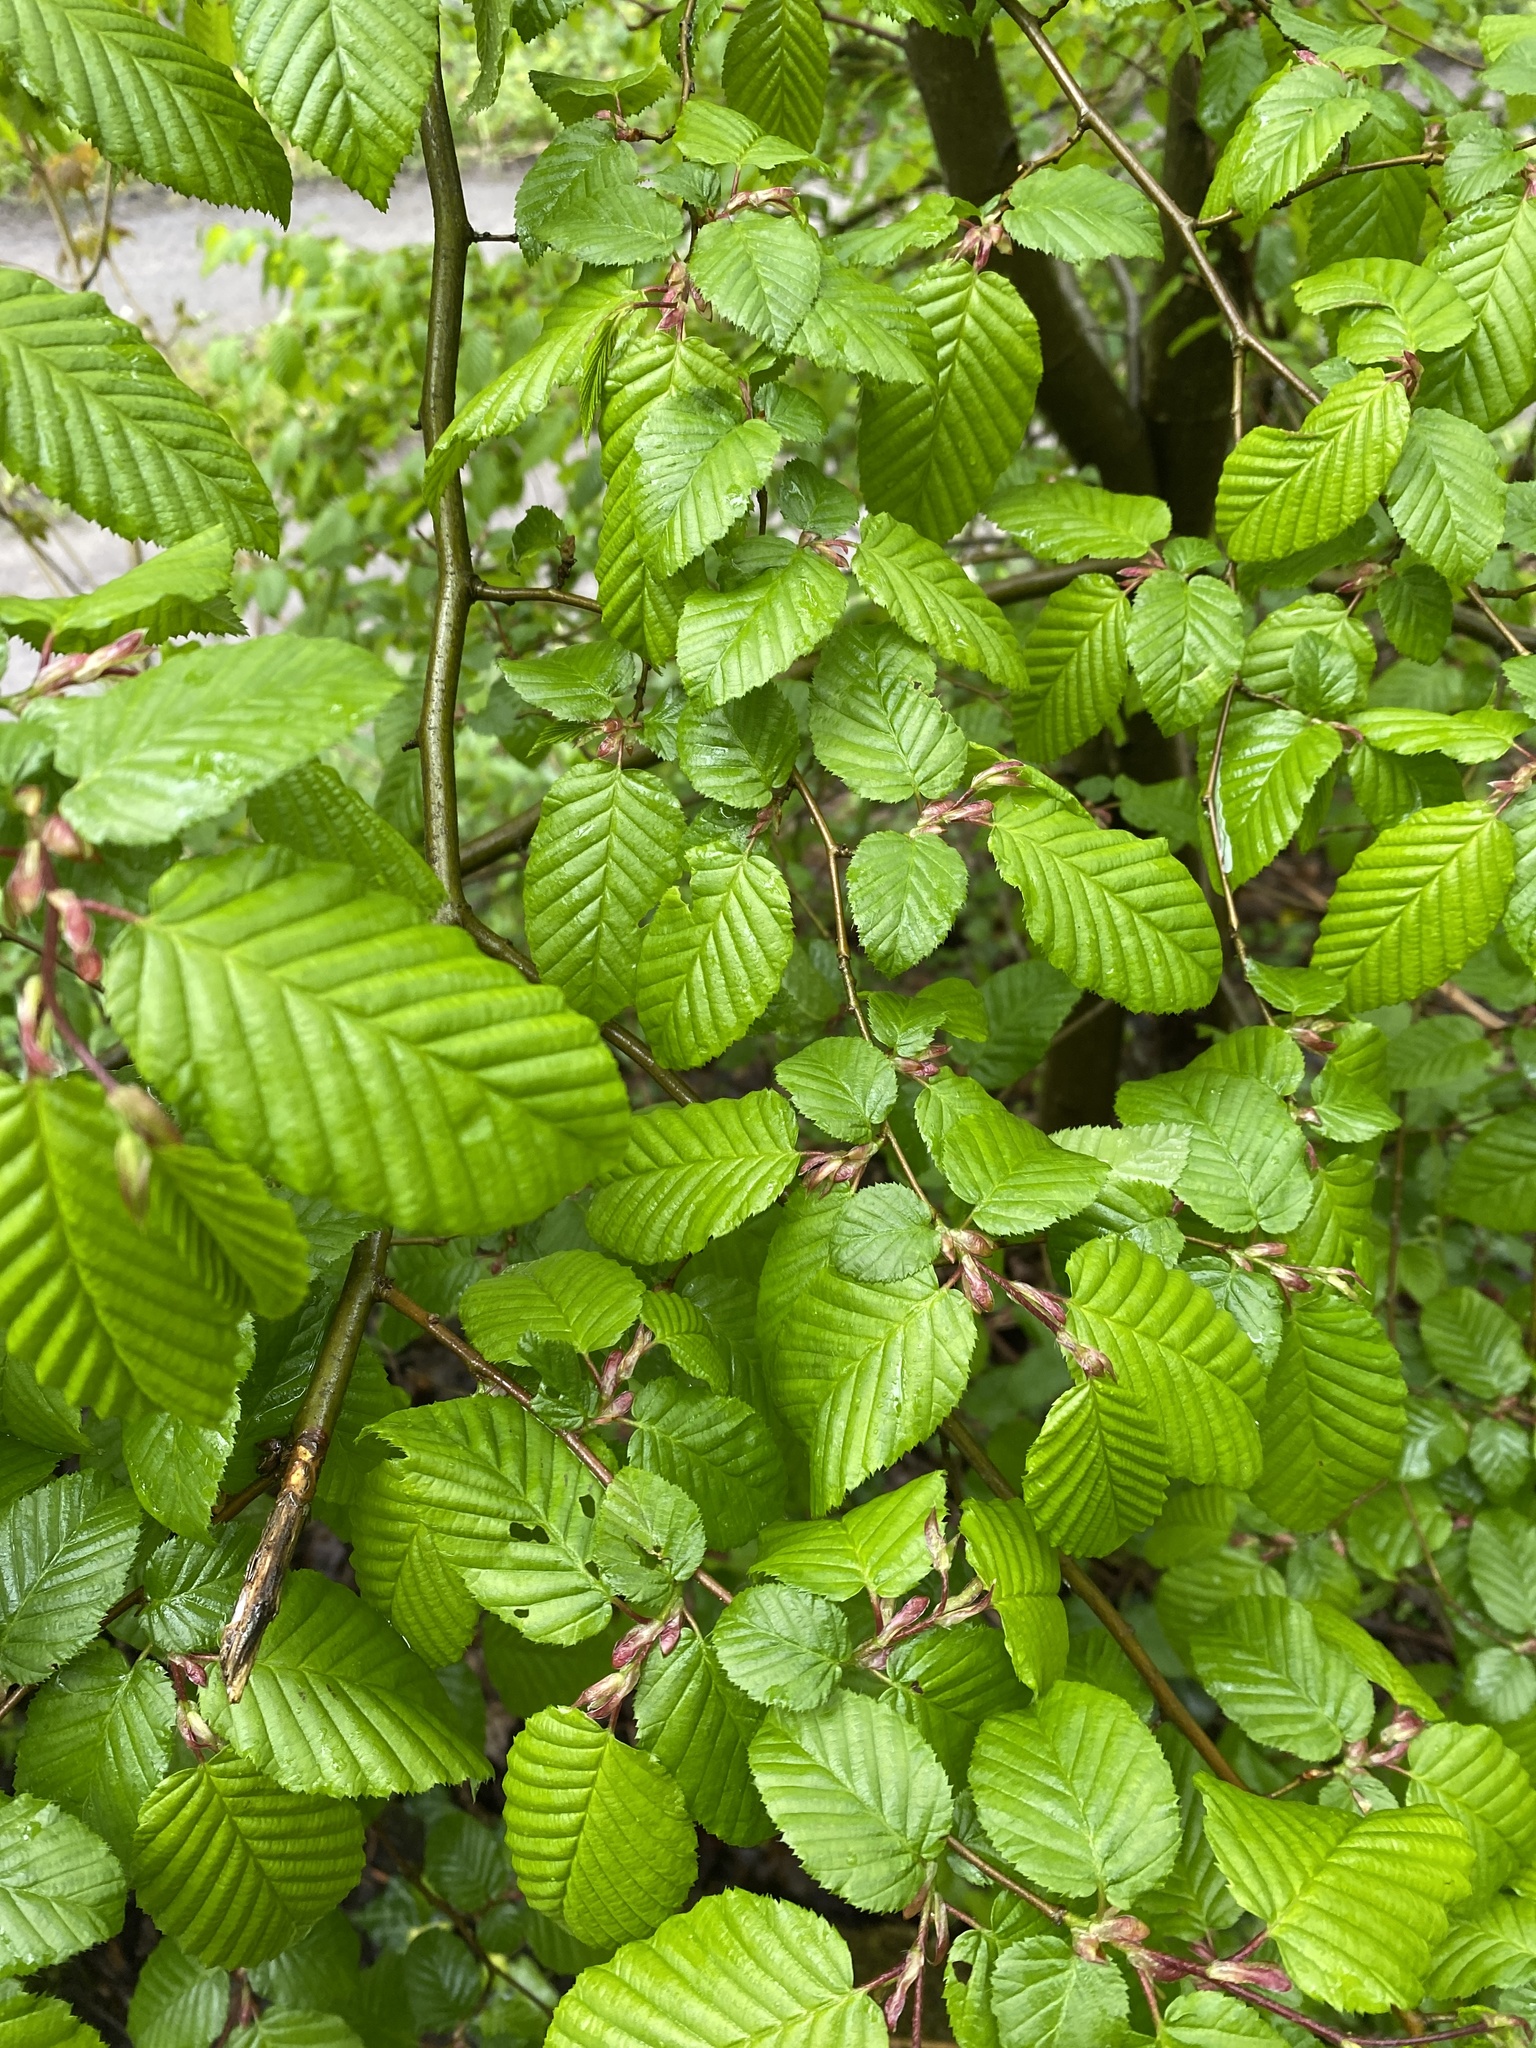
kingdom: Plantae
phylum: Tracheophyta
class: Magnoliopsida
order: Fagales
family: Betulaceae
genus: Carpinus
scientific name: Carpinus betulus
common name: Hornbeam
